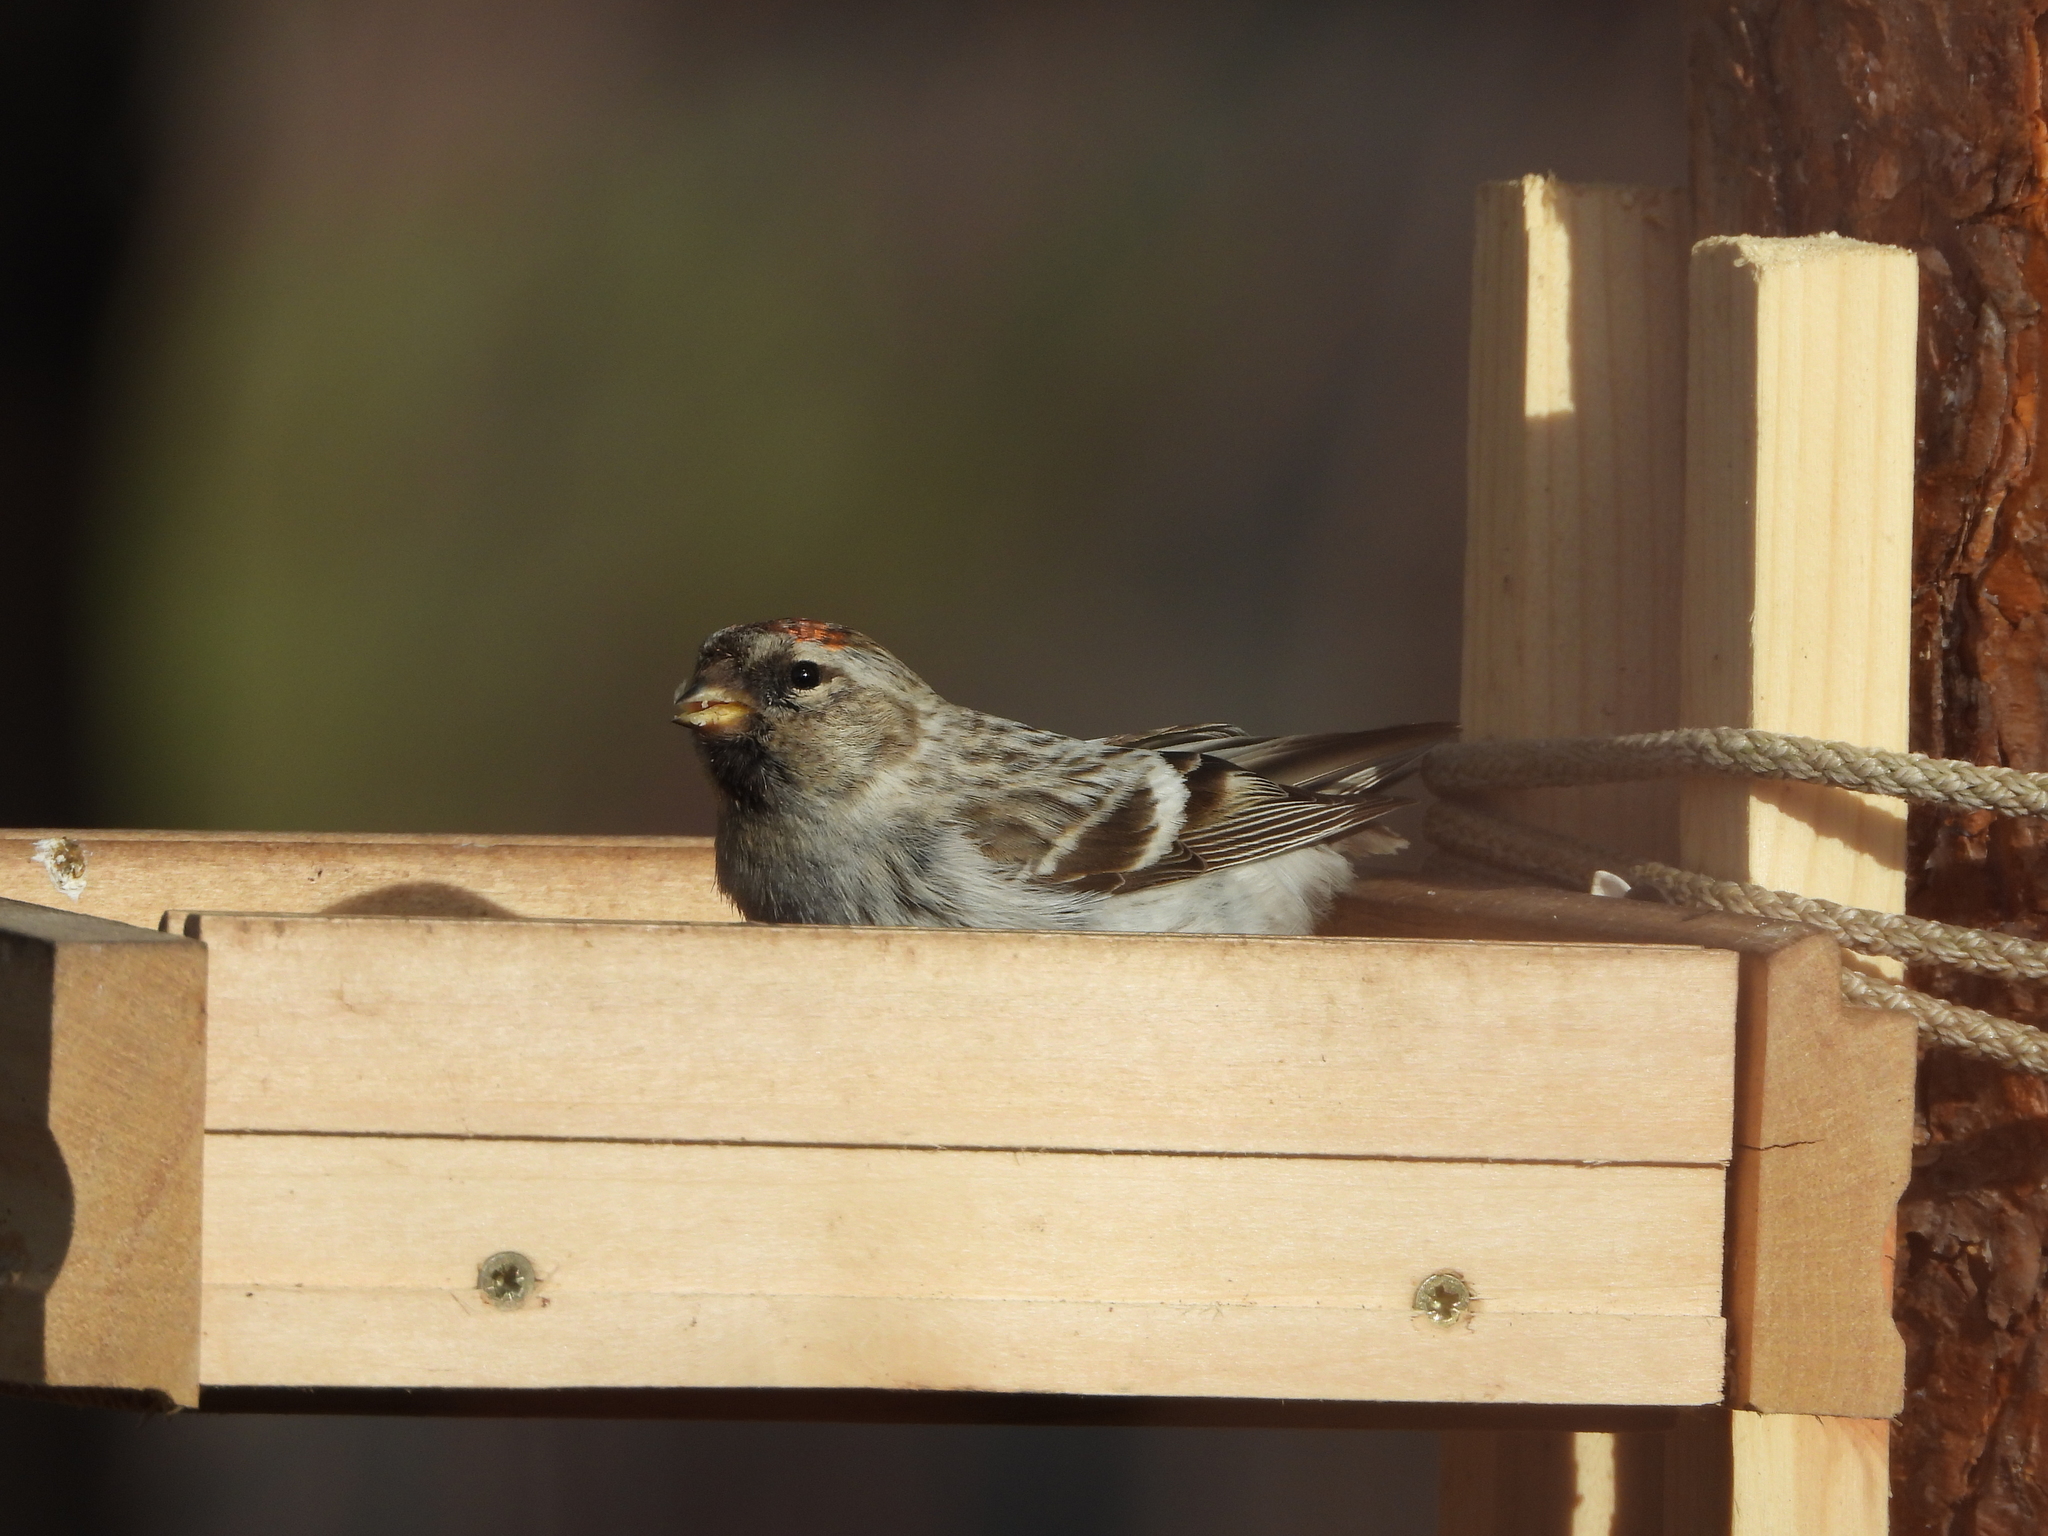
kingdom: Animalia
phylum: Chordata
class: Aves
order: Passeriformes
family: Fringillidae
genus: Acanthis
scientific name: Acanthis flammea
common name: Common redpoll
